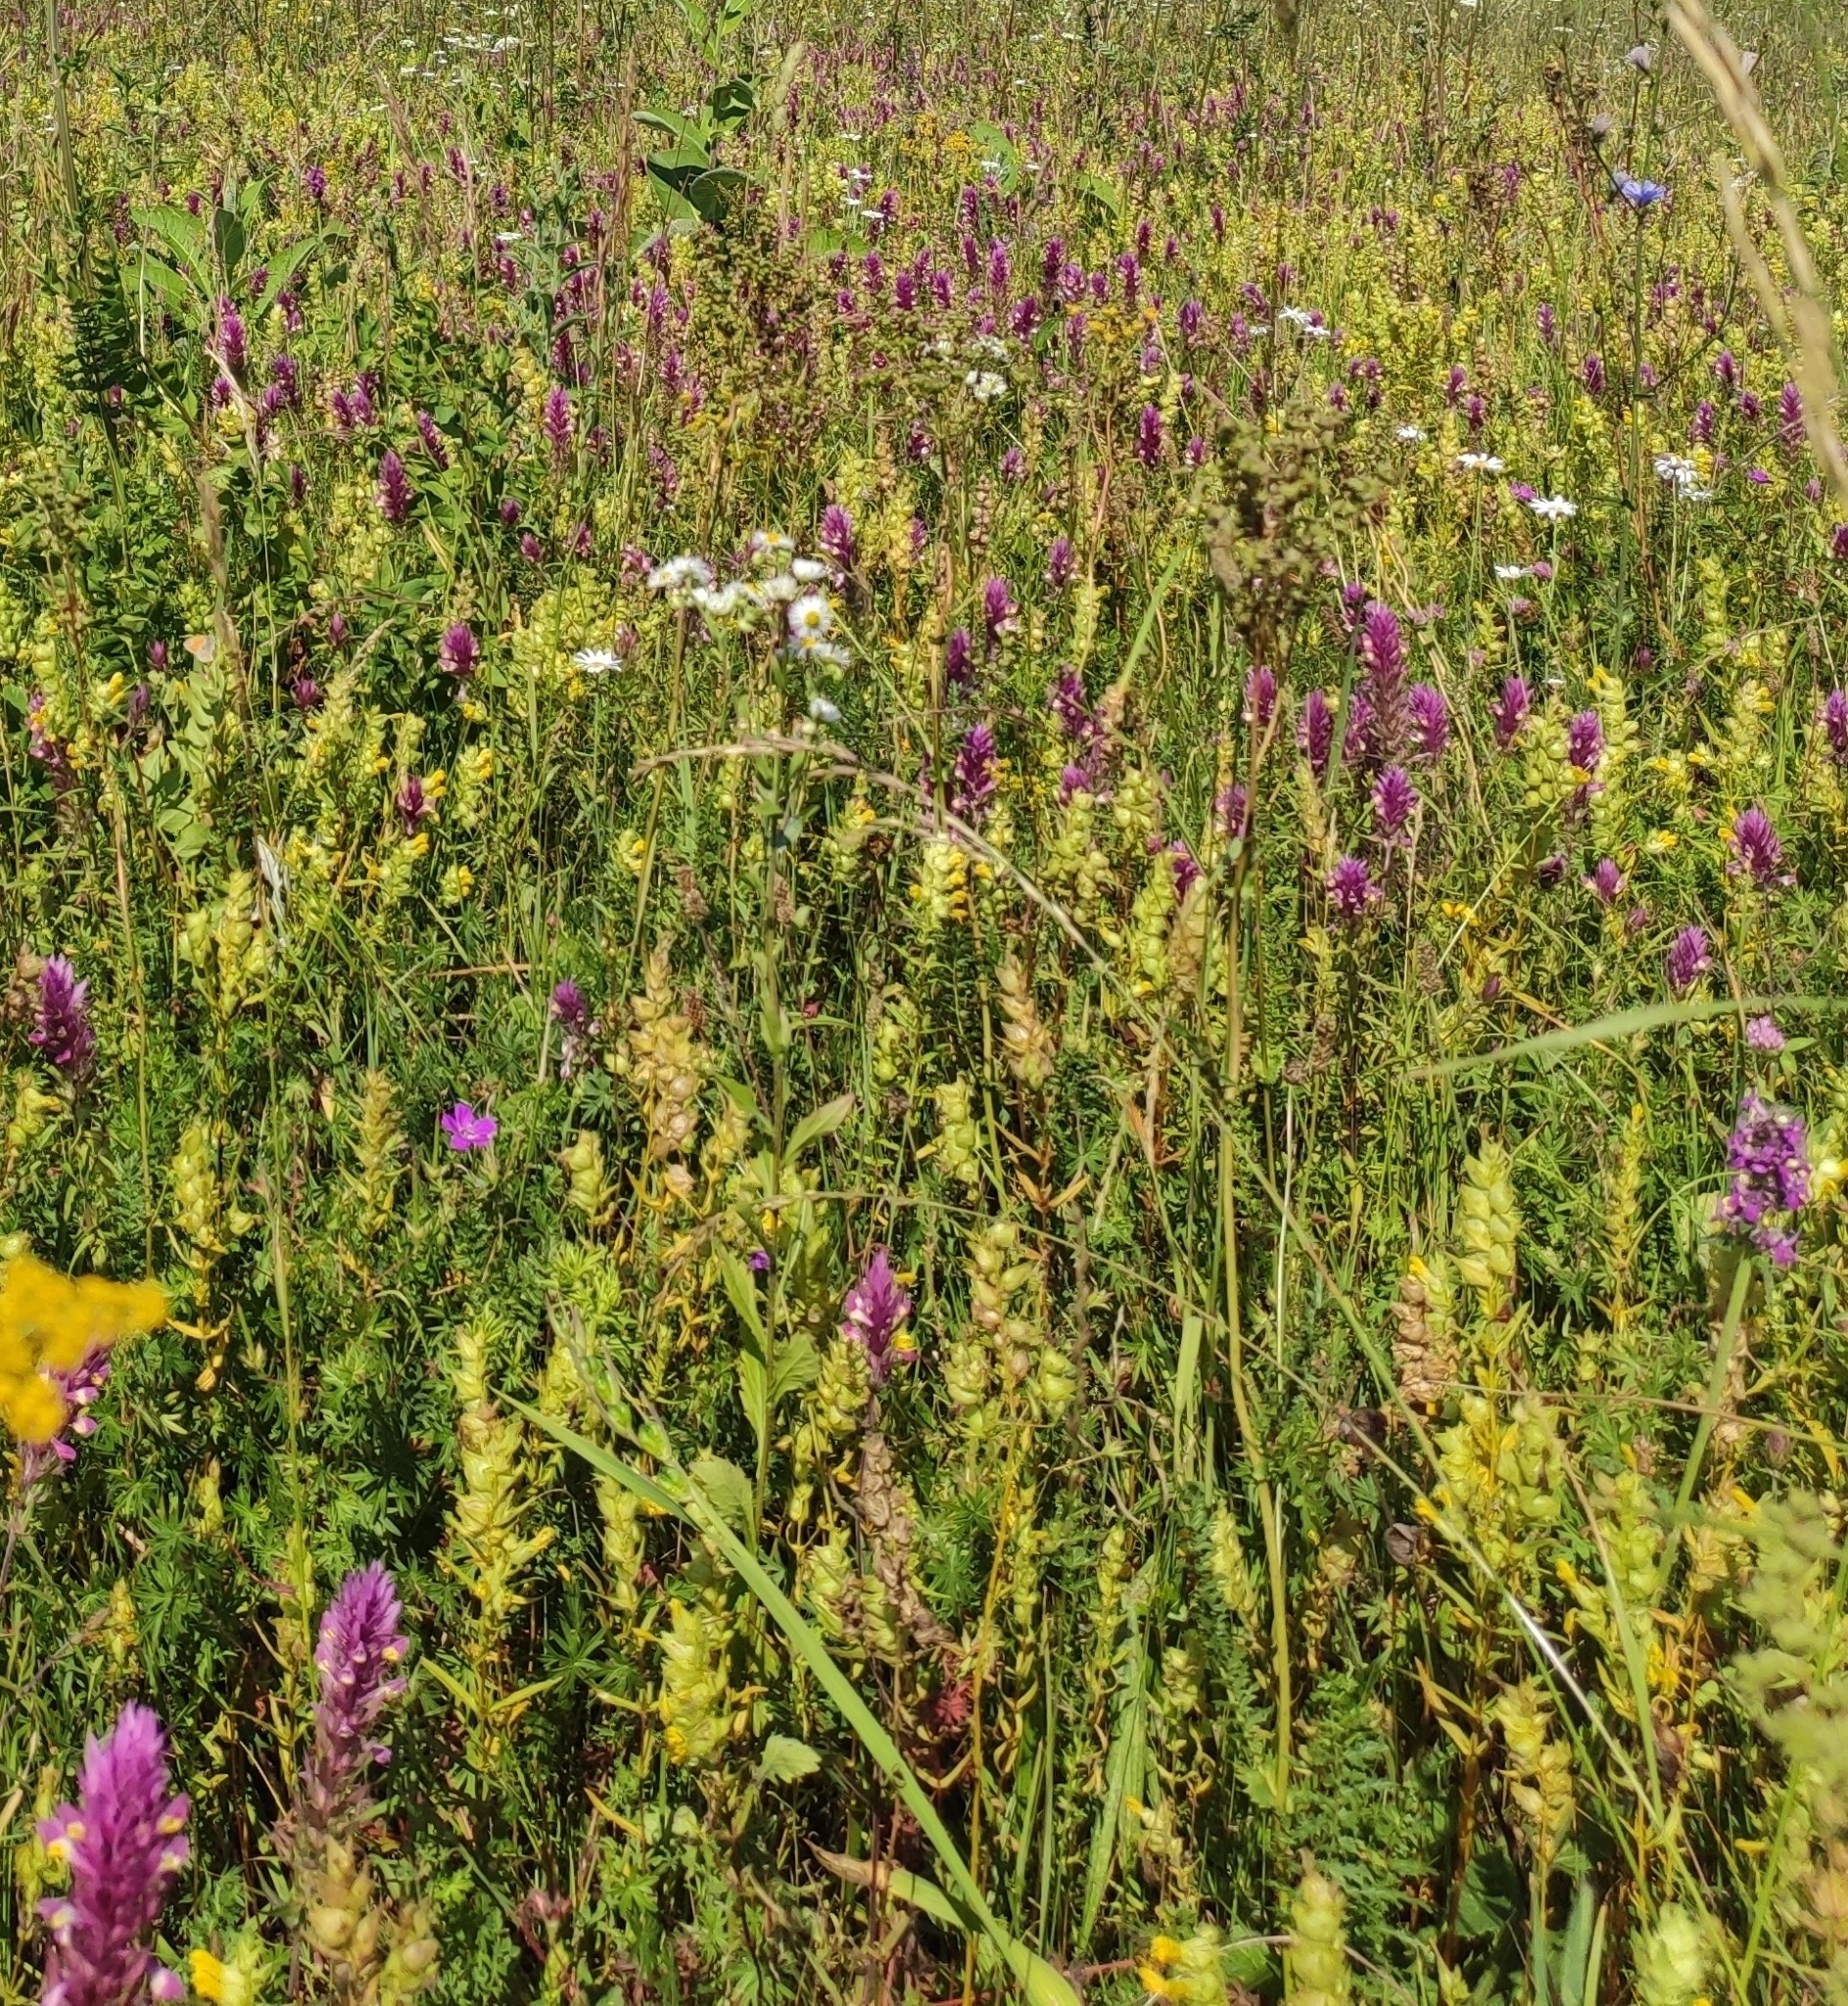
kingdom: Plantae
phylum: Tracheophyta
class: Magnoliopsida
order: Lamiales
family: Orobanchaceae
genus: Melampyrum
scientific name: Melampyrum arvense
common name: Field cow-wheat
